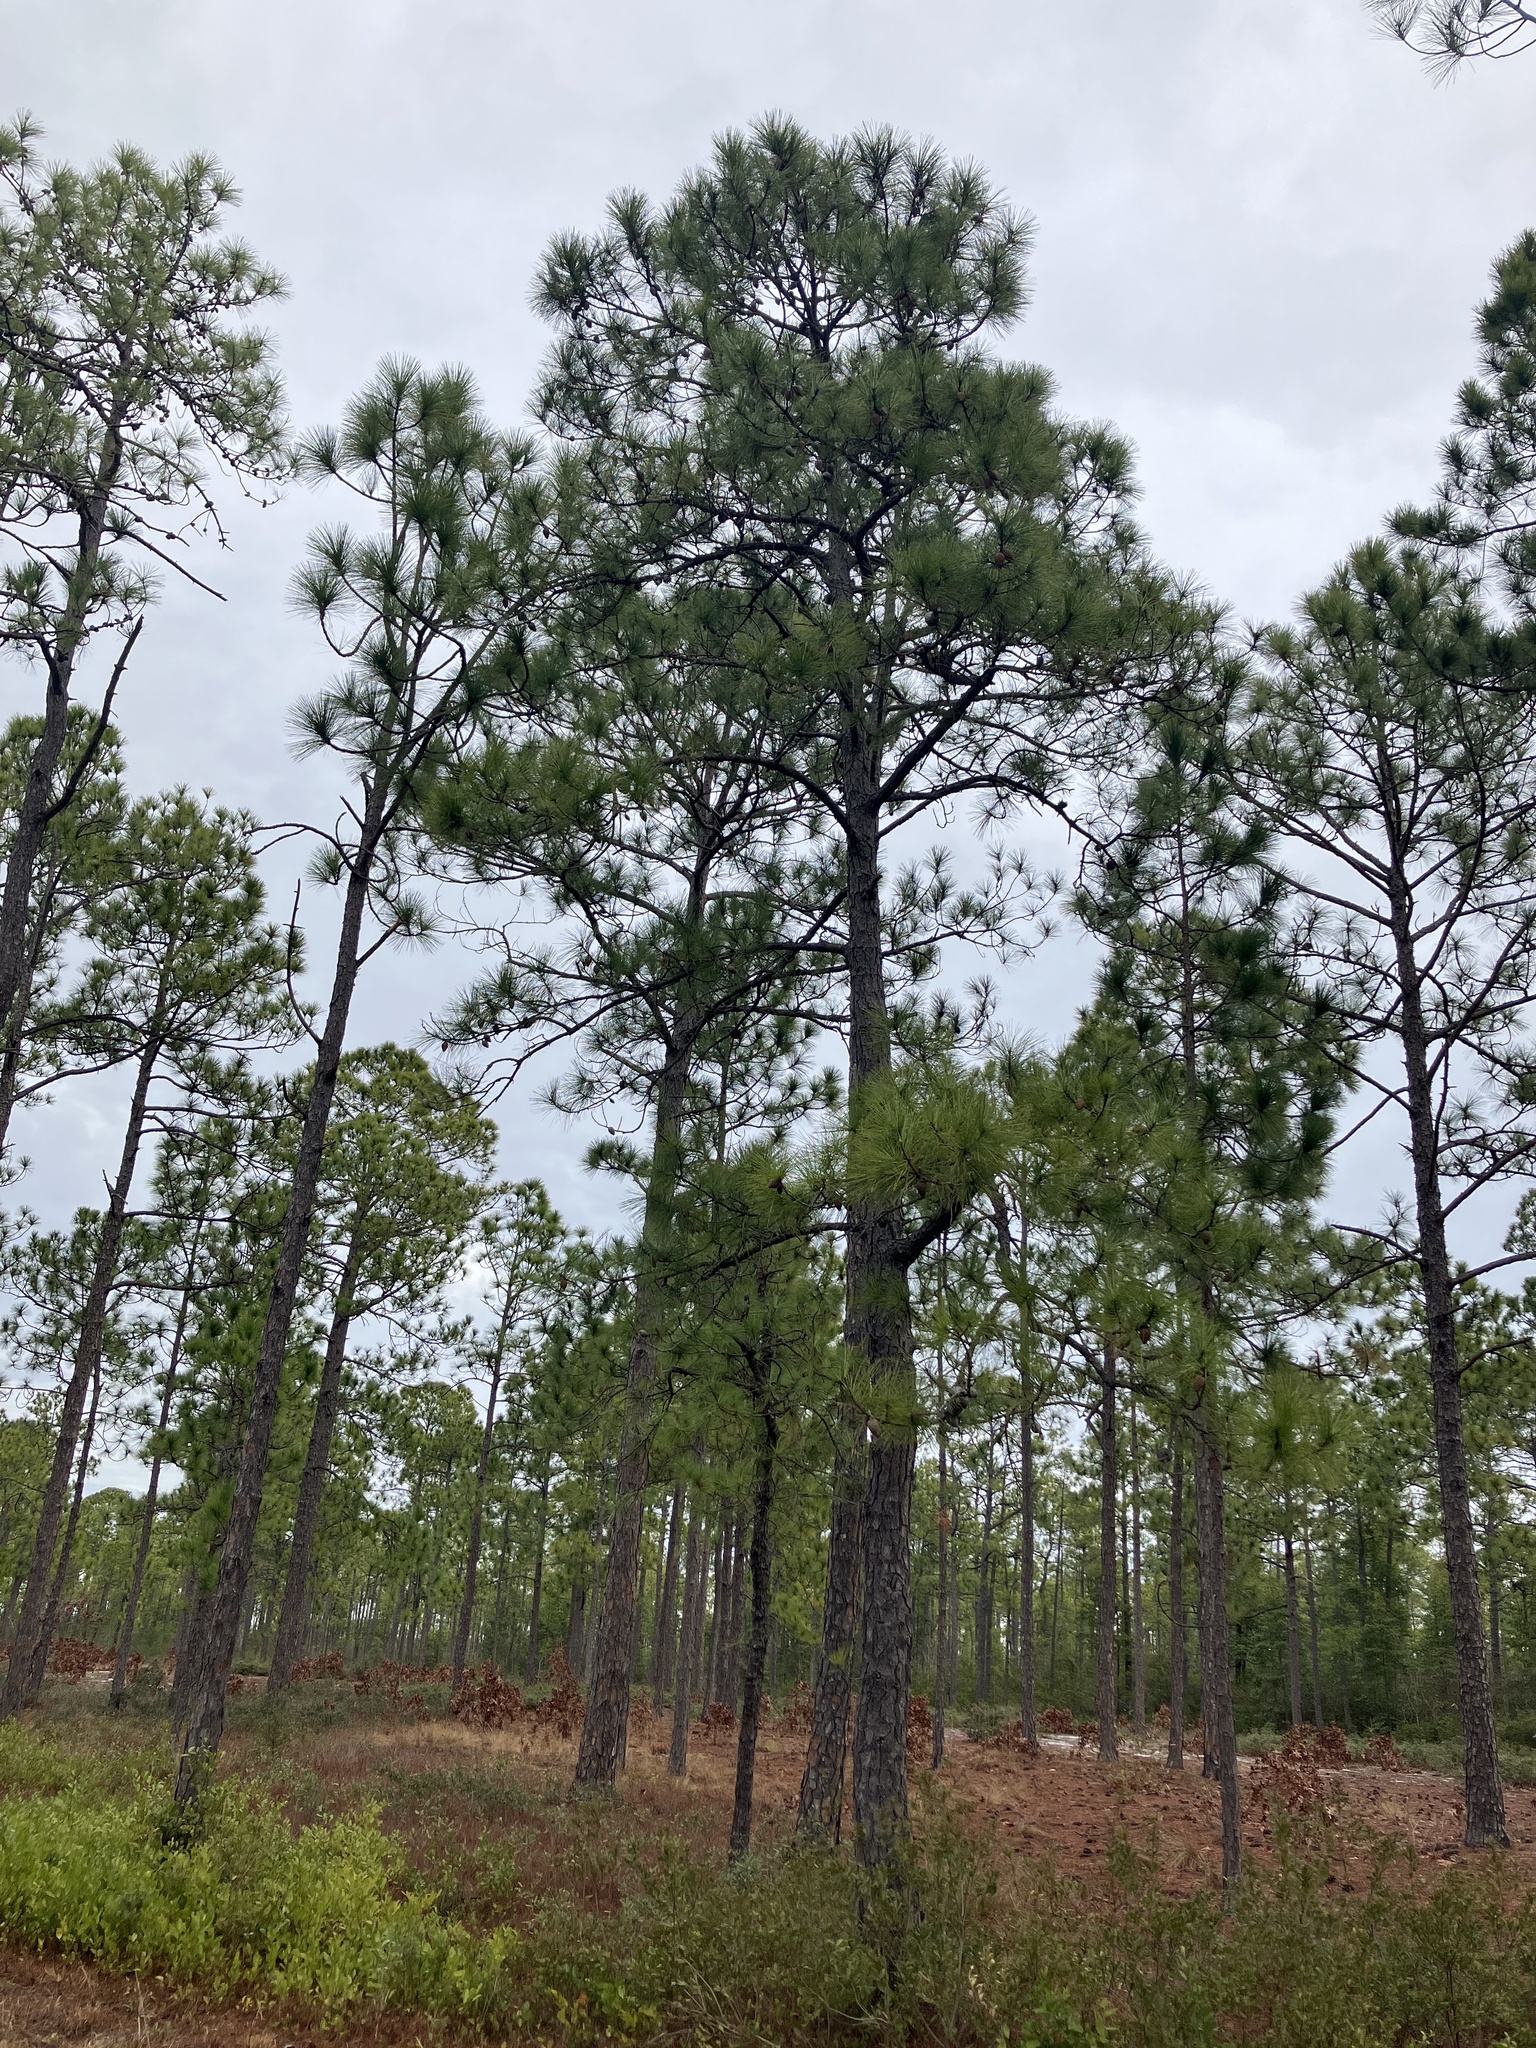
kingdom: Plantae
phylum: Tracheophyta
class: Pinopsida
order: Pinales
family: Pinaceae
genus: Pinus
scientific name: Pinus serotina
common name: Marsh pine
